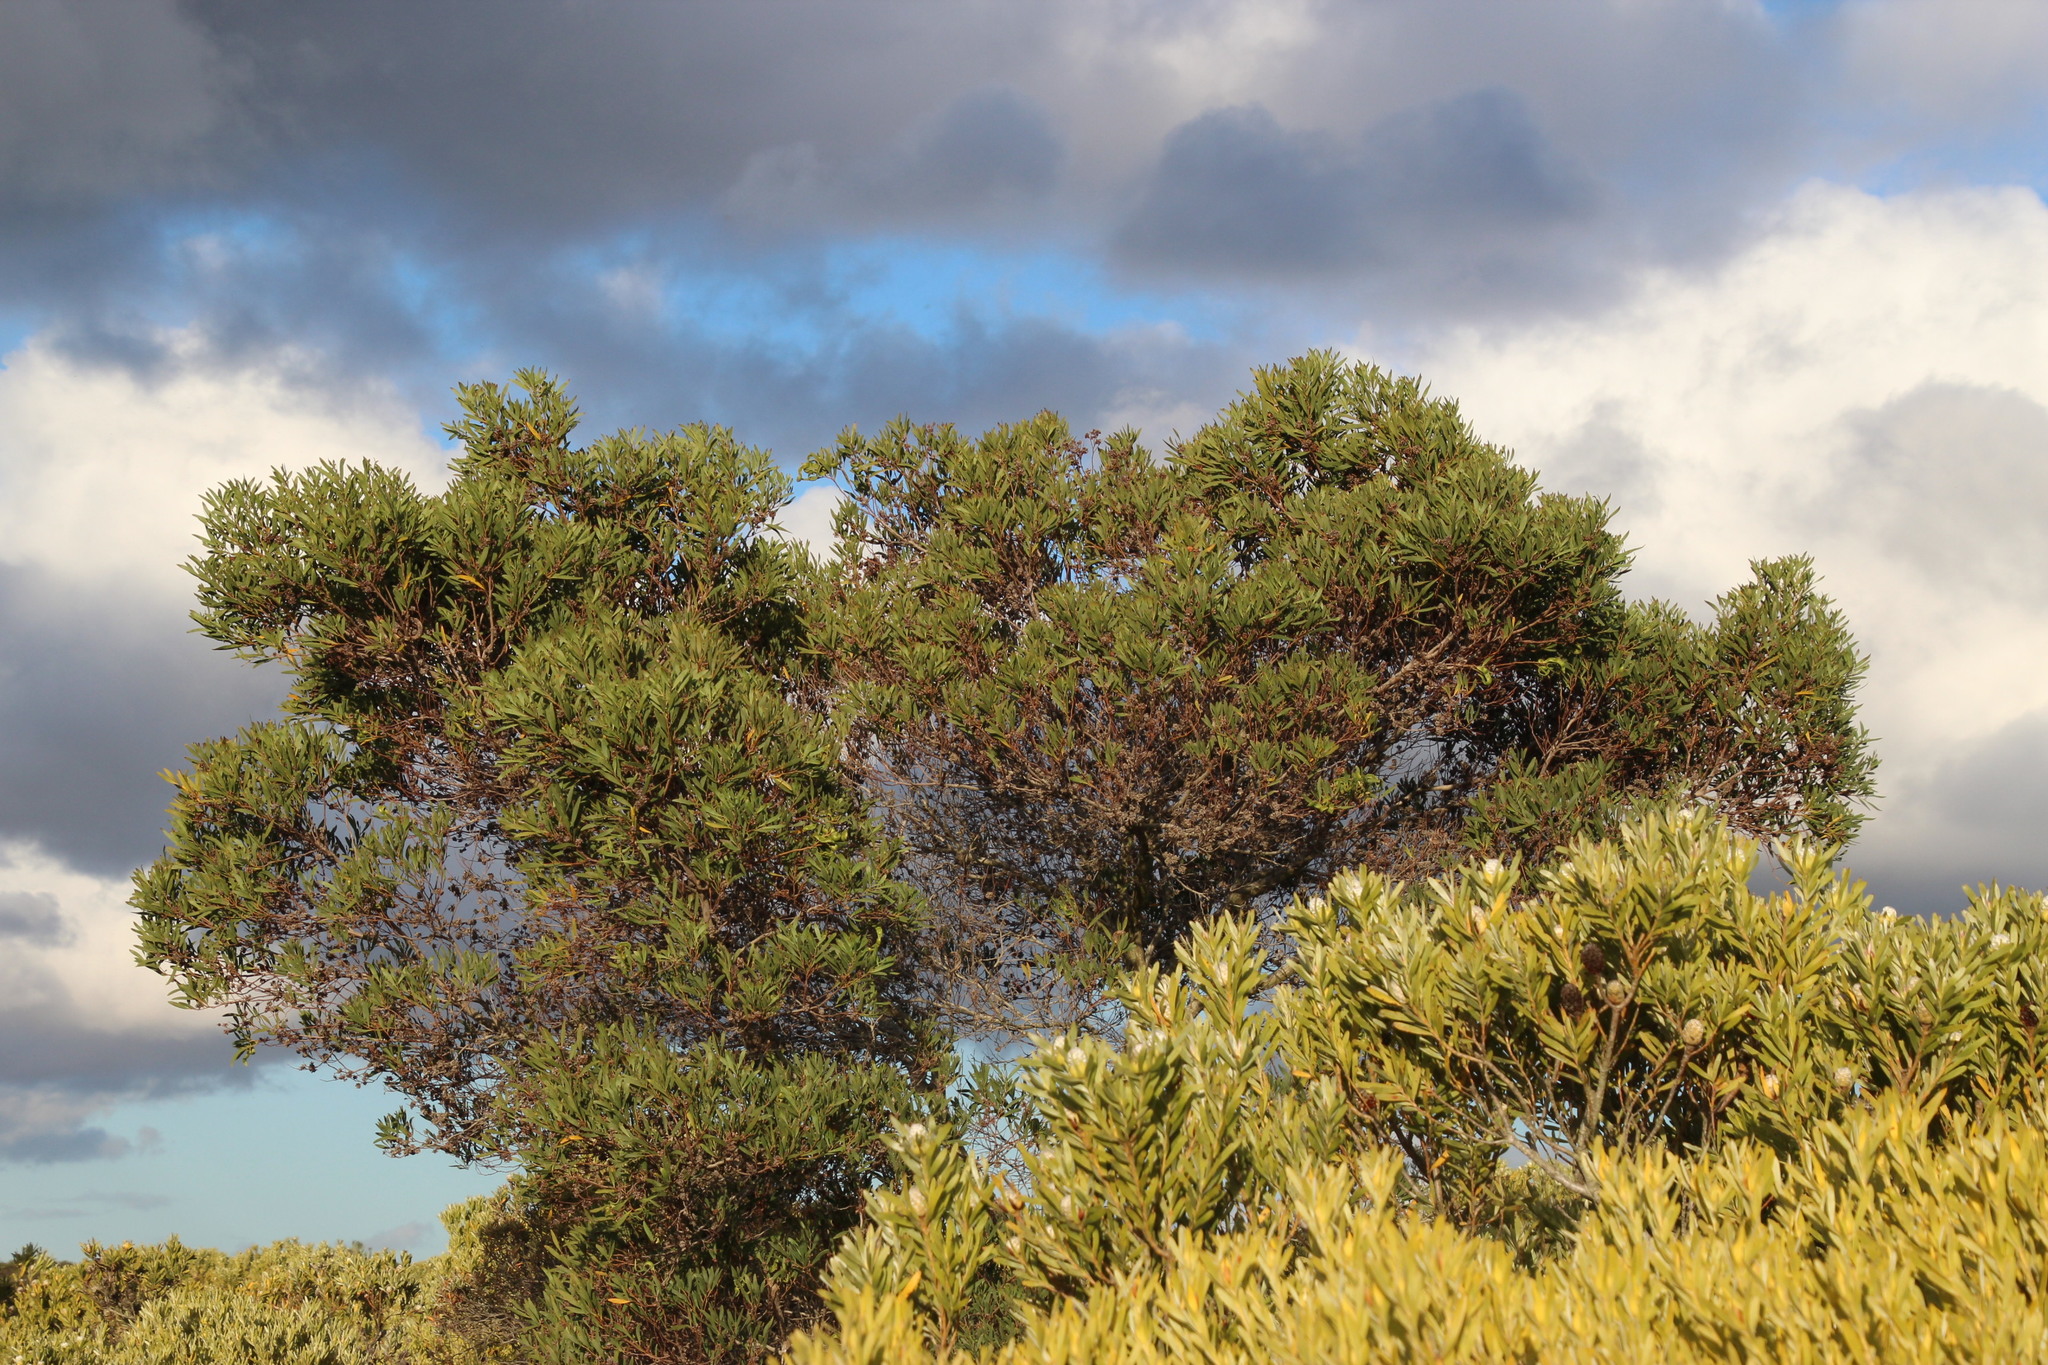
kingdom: Plantae
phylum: Tracheophyta
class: Magnoliopsida
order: Fabales
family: Fabaceae
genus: Acacia
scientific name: Acacia cyclops
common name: Coastal wattle
